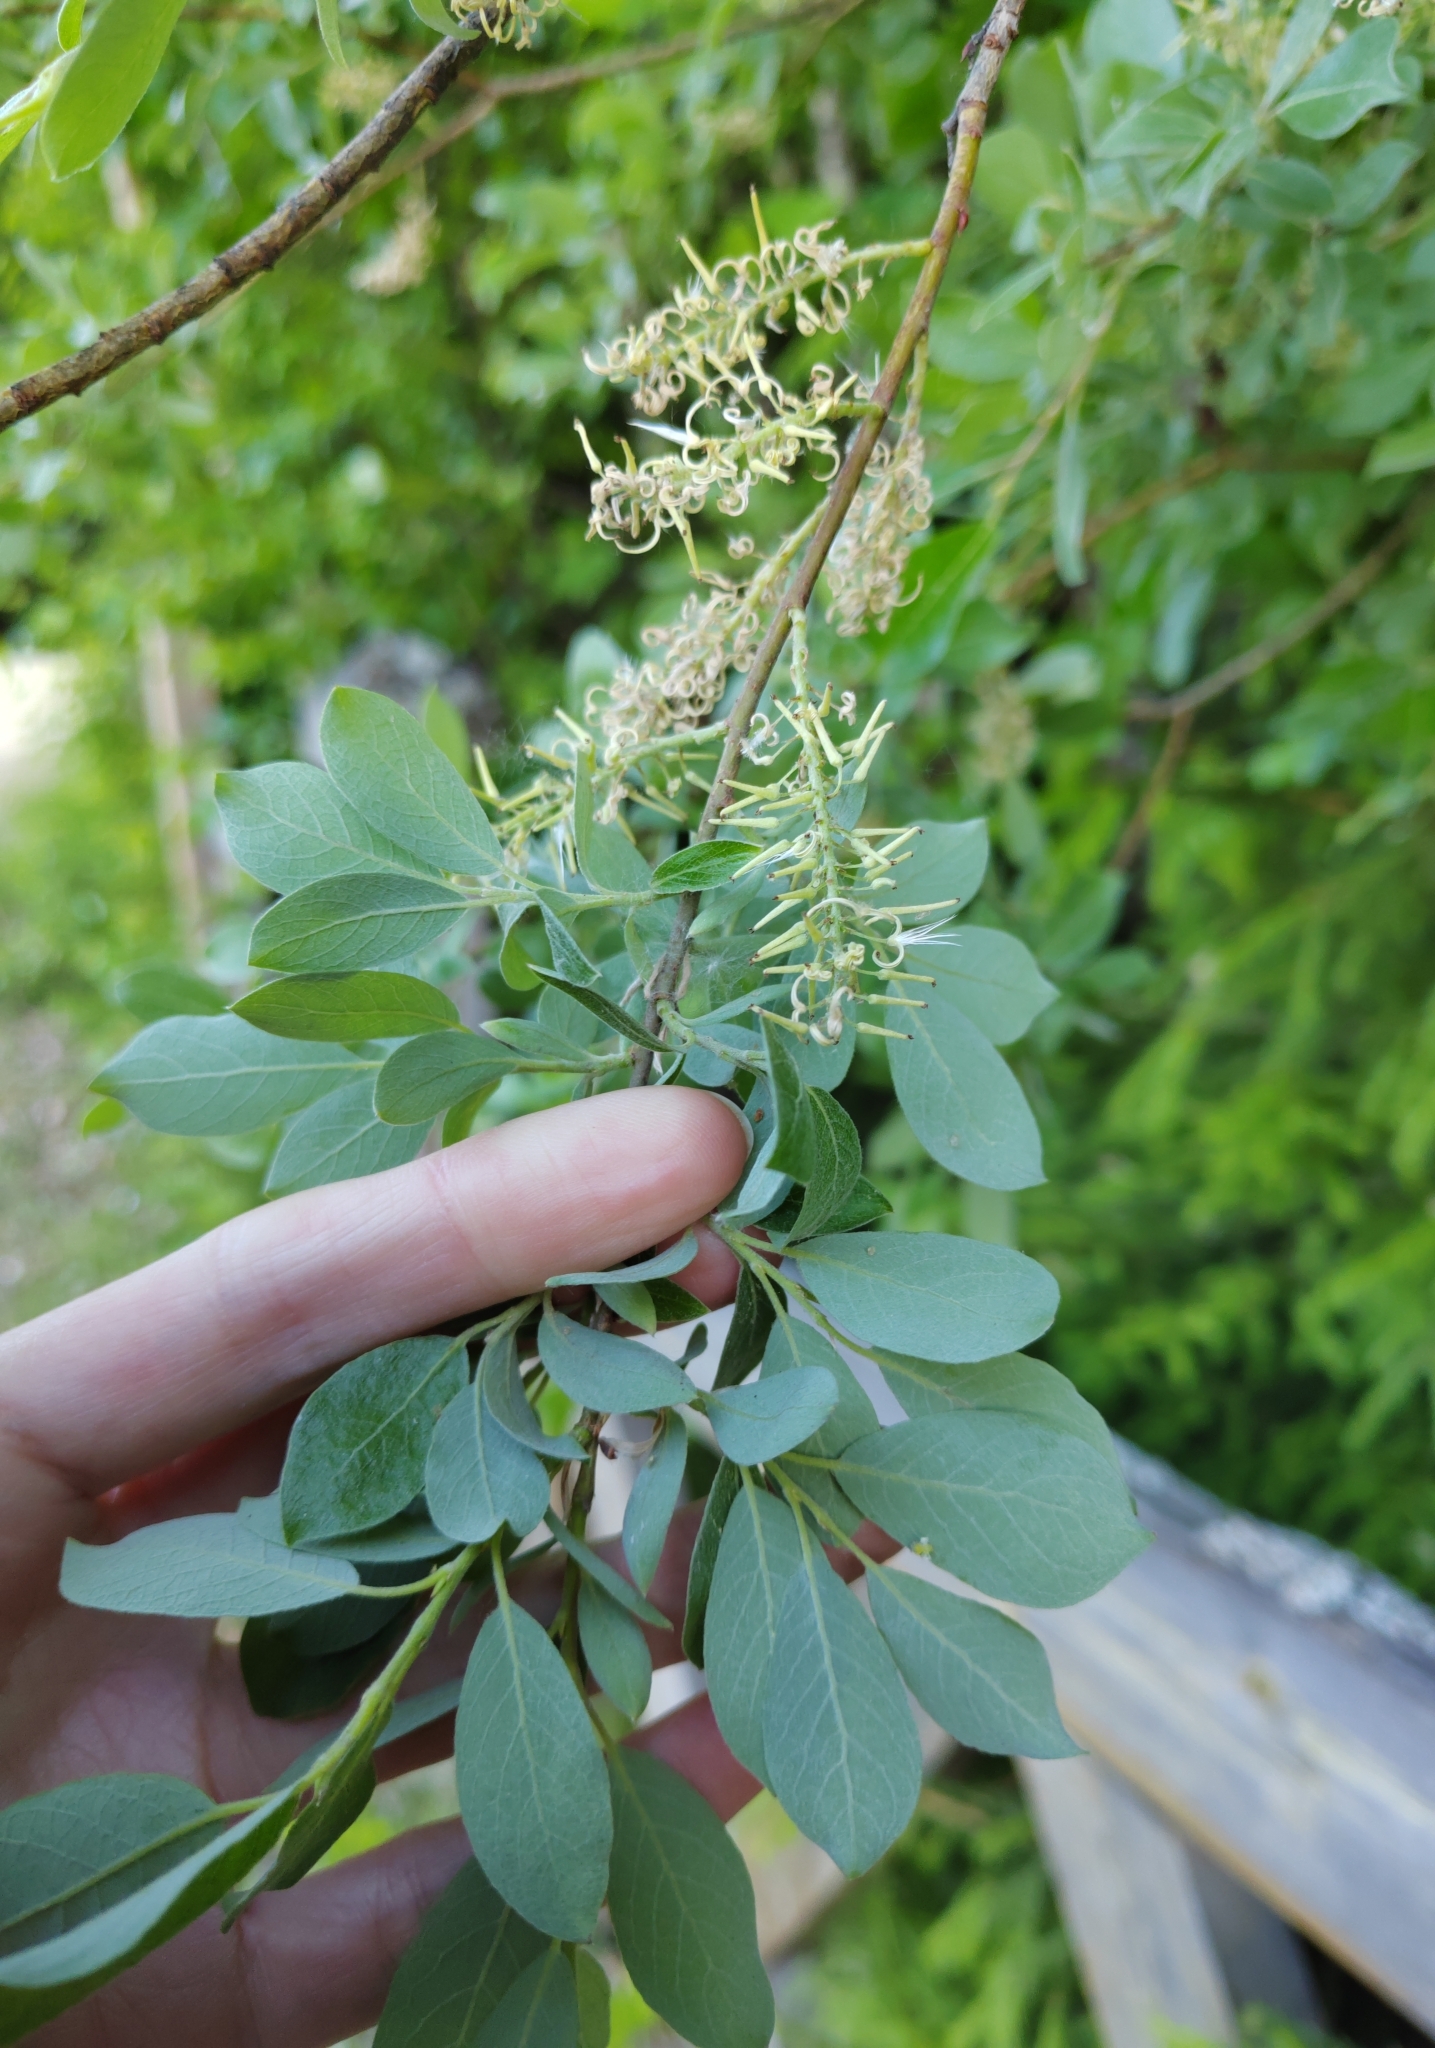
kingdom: Plantae
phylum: Tracheophyta
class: Magnoliopsida
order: Malpighiales
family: Salicaceae
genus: Salix
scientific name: Salix cinerea
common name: Common sallow
